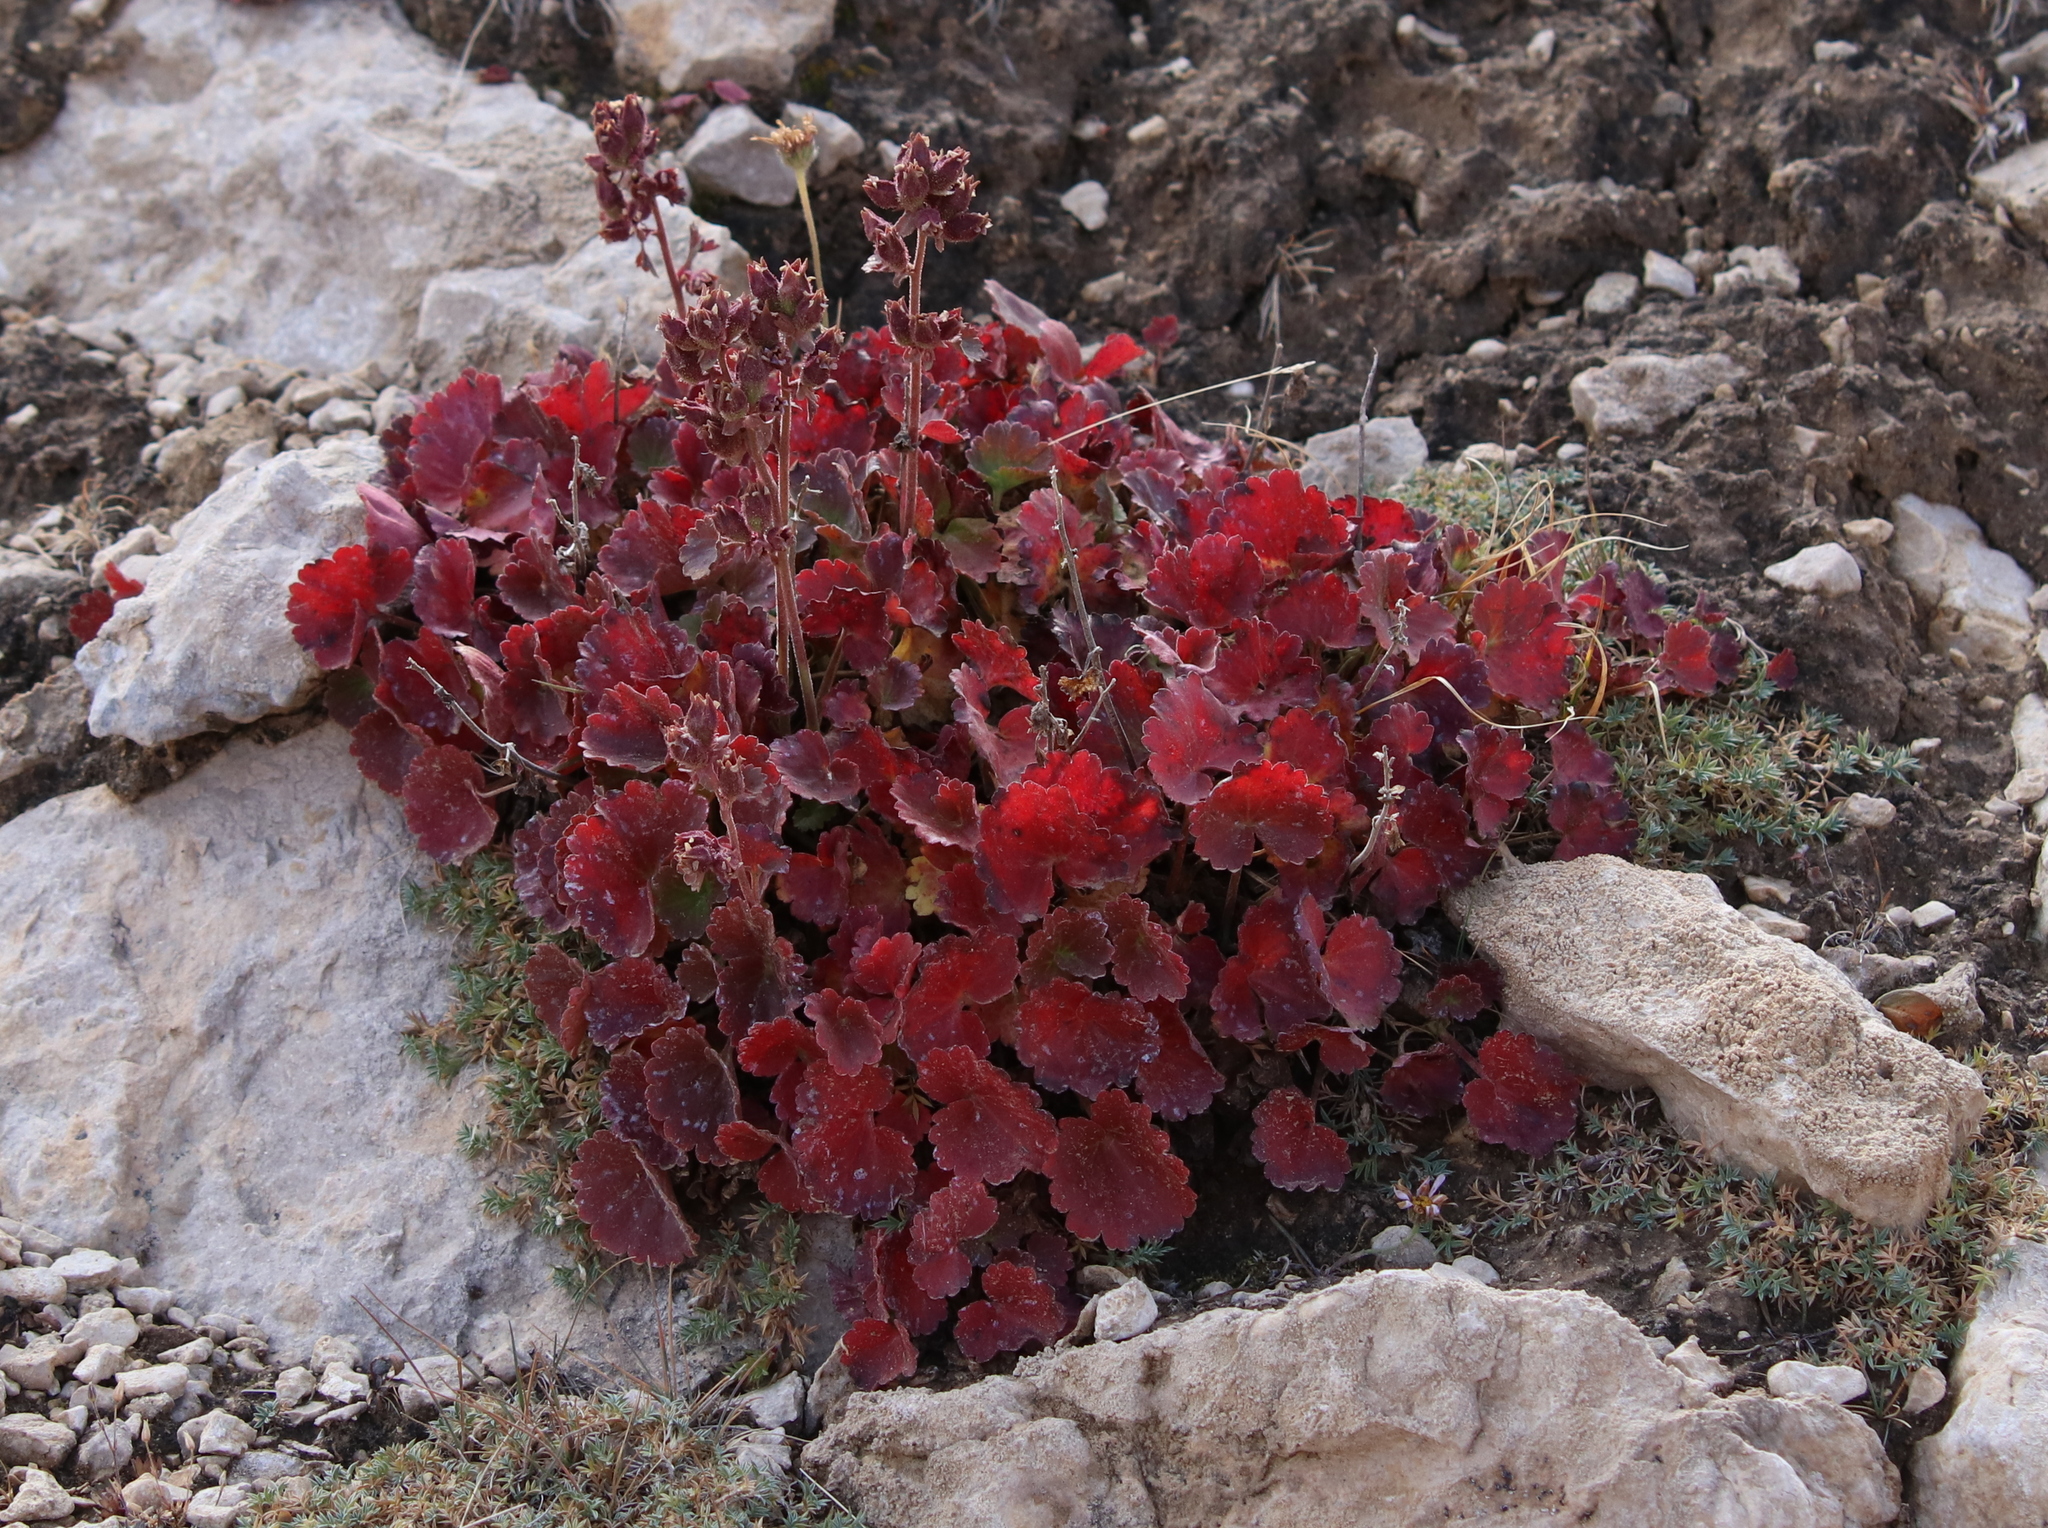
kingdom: Plantae
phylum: Tracheophyta
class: Magnoliopsida
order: Saxifragales
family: Saxifragaceae
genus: Telesonix
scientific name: Telesonix heucheriformis
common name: Alumroot brookfoam
